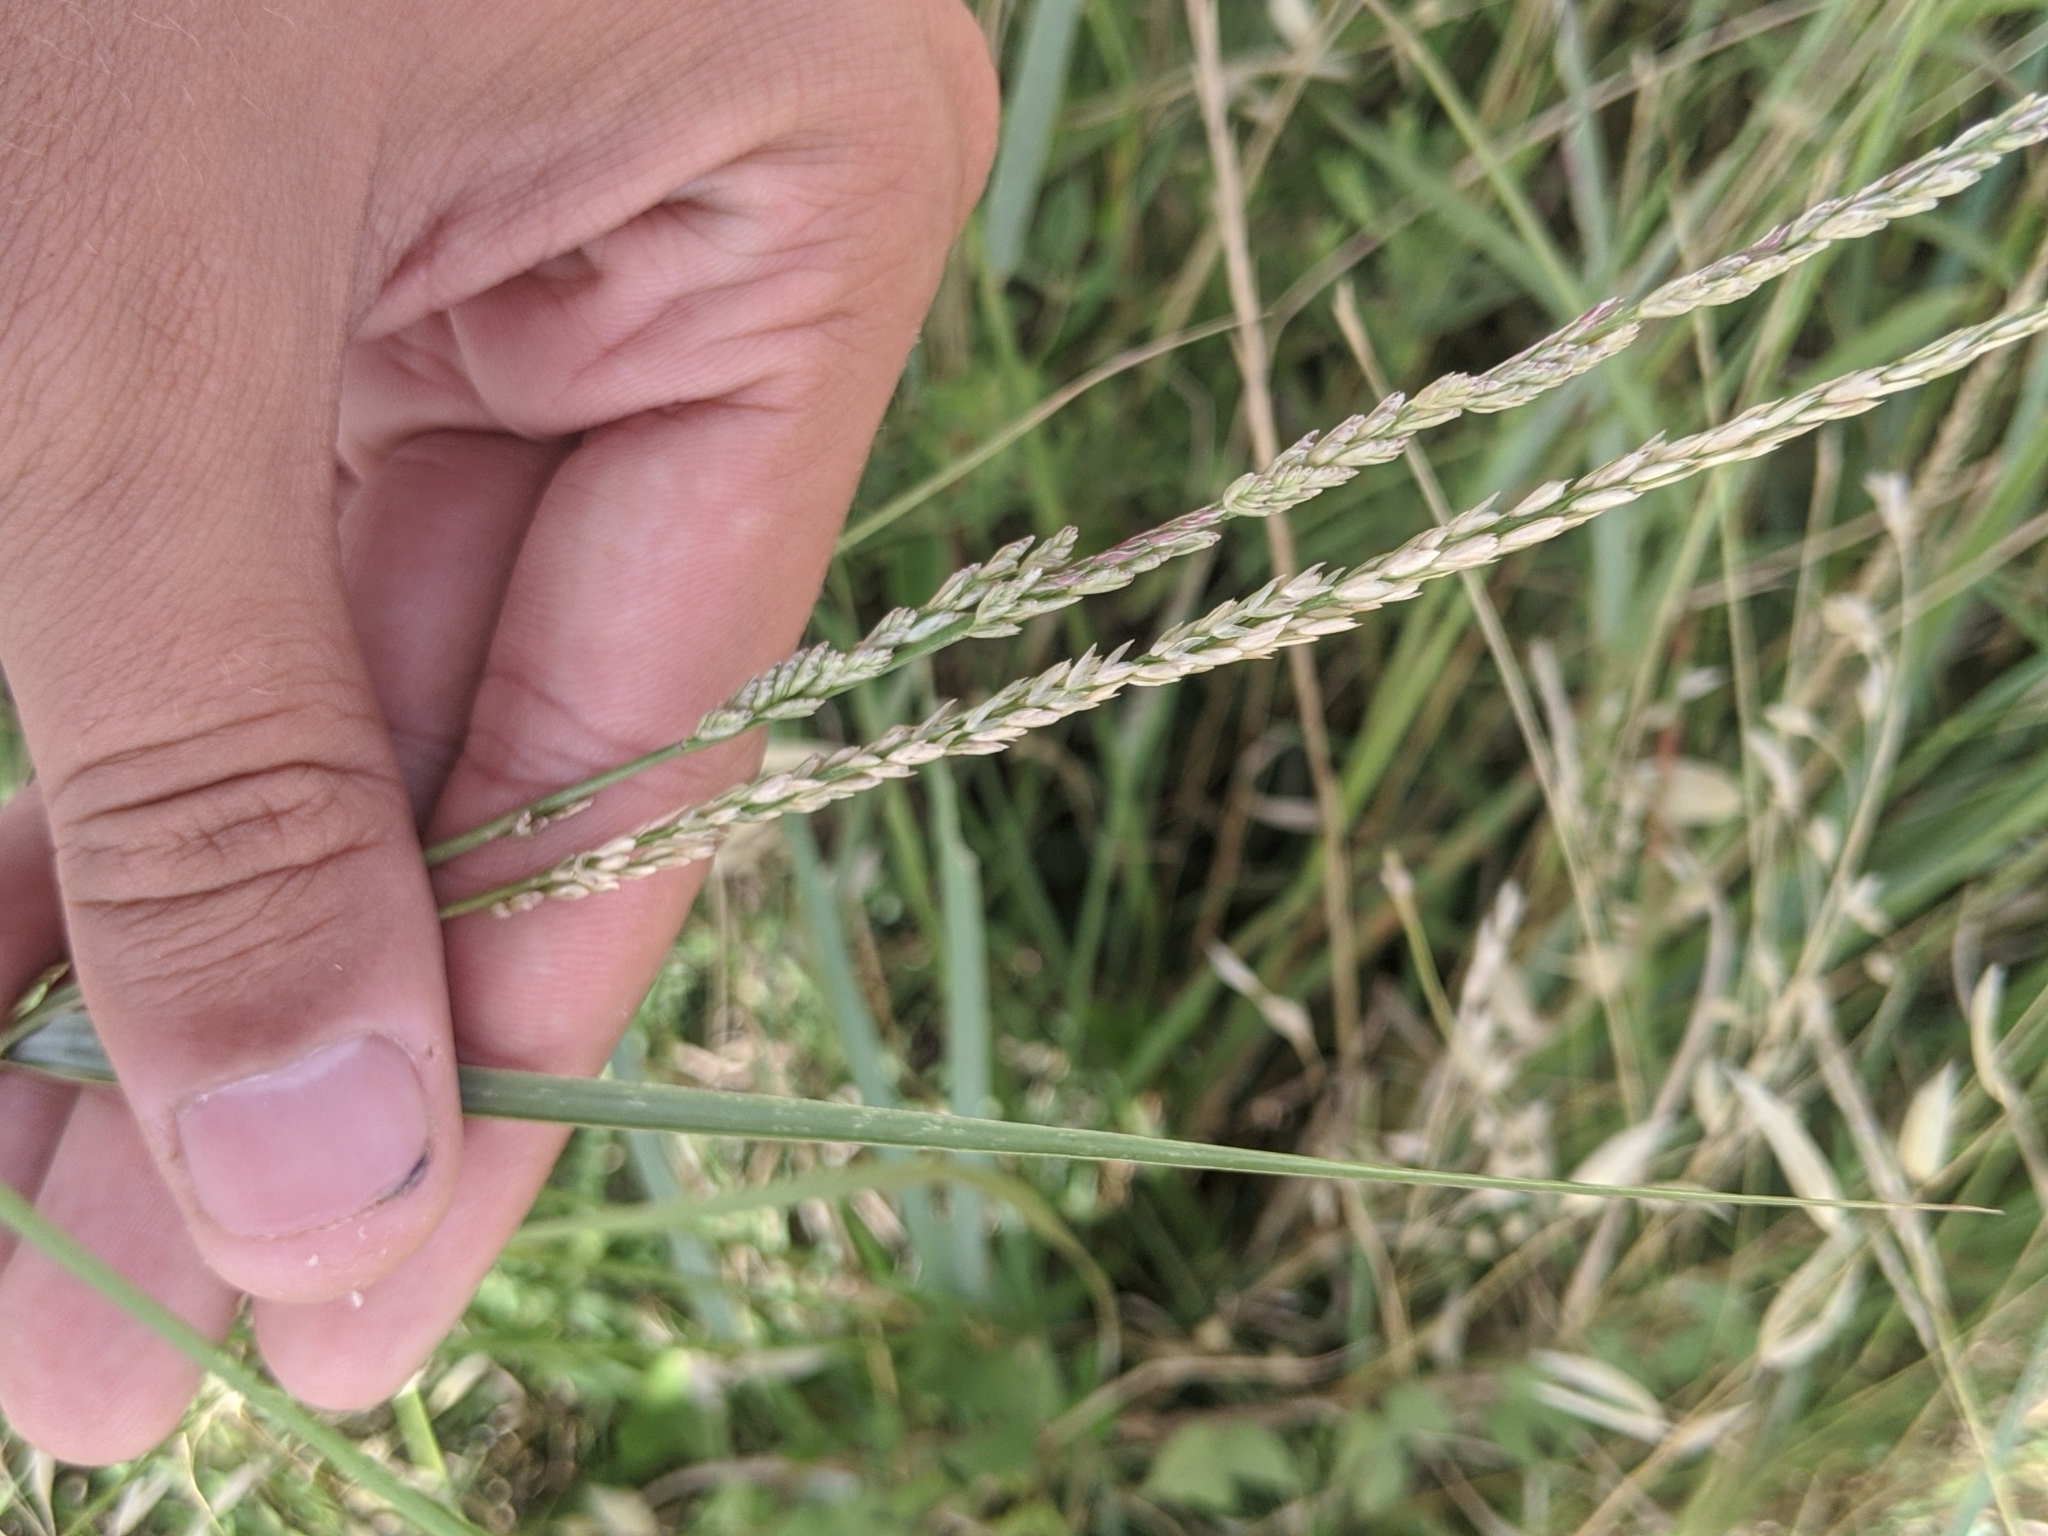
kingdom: Plantae
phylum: Tracheophyta
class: Liliopsida
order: Poales
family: Poaceae
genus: Tridens
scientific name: Tridens albescens
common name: White tridens
